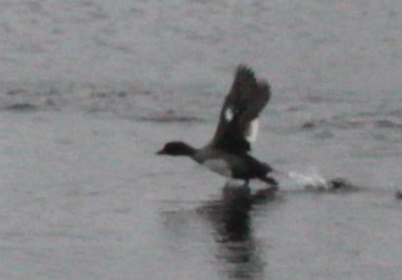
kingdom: Animalia
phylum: Chordata
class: Aves
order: Anseriformes
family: Anatidae
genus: Bucephala
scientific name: Bucephala clangula
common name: Common goldeneye
